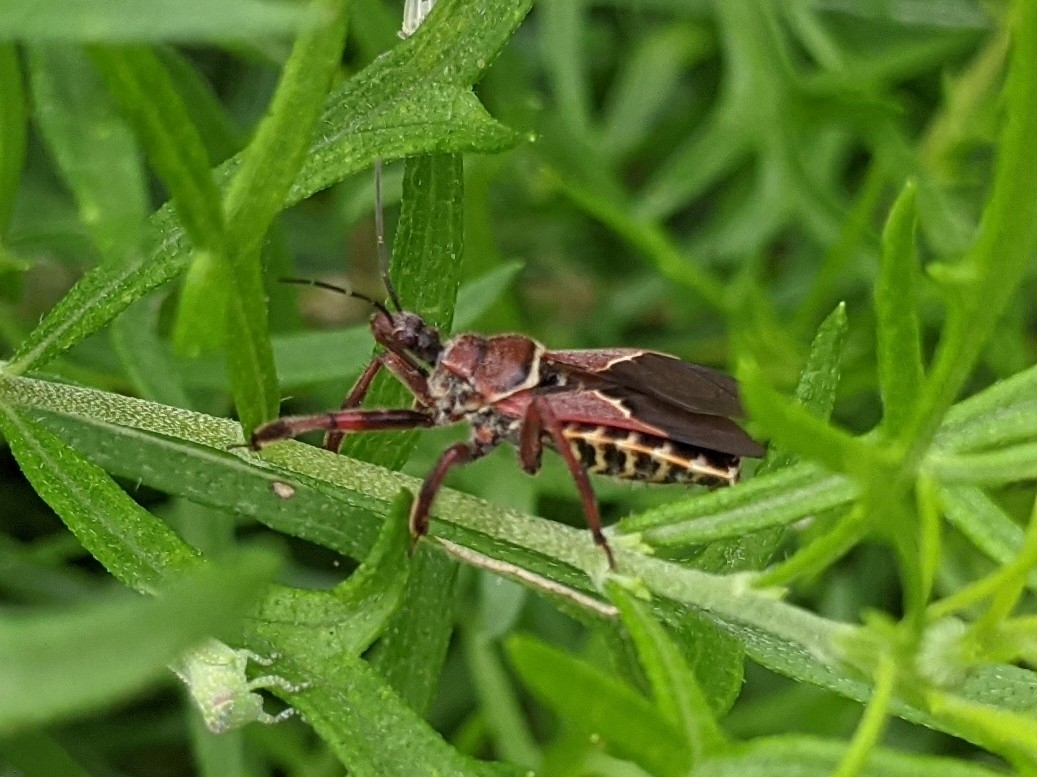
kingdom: Animalia
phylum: Arthropoda
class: Insecta
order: Hemiptera
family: Reduviidae
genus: Apiomerus
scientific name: Apiomerus spissipes
